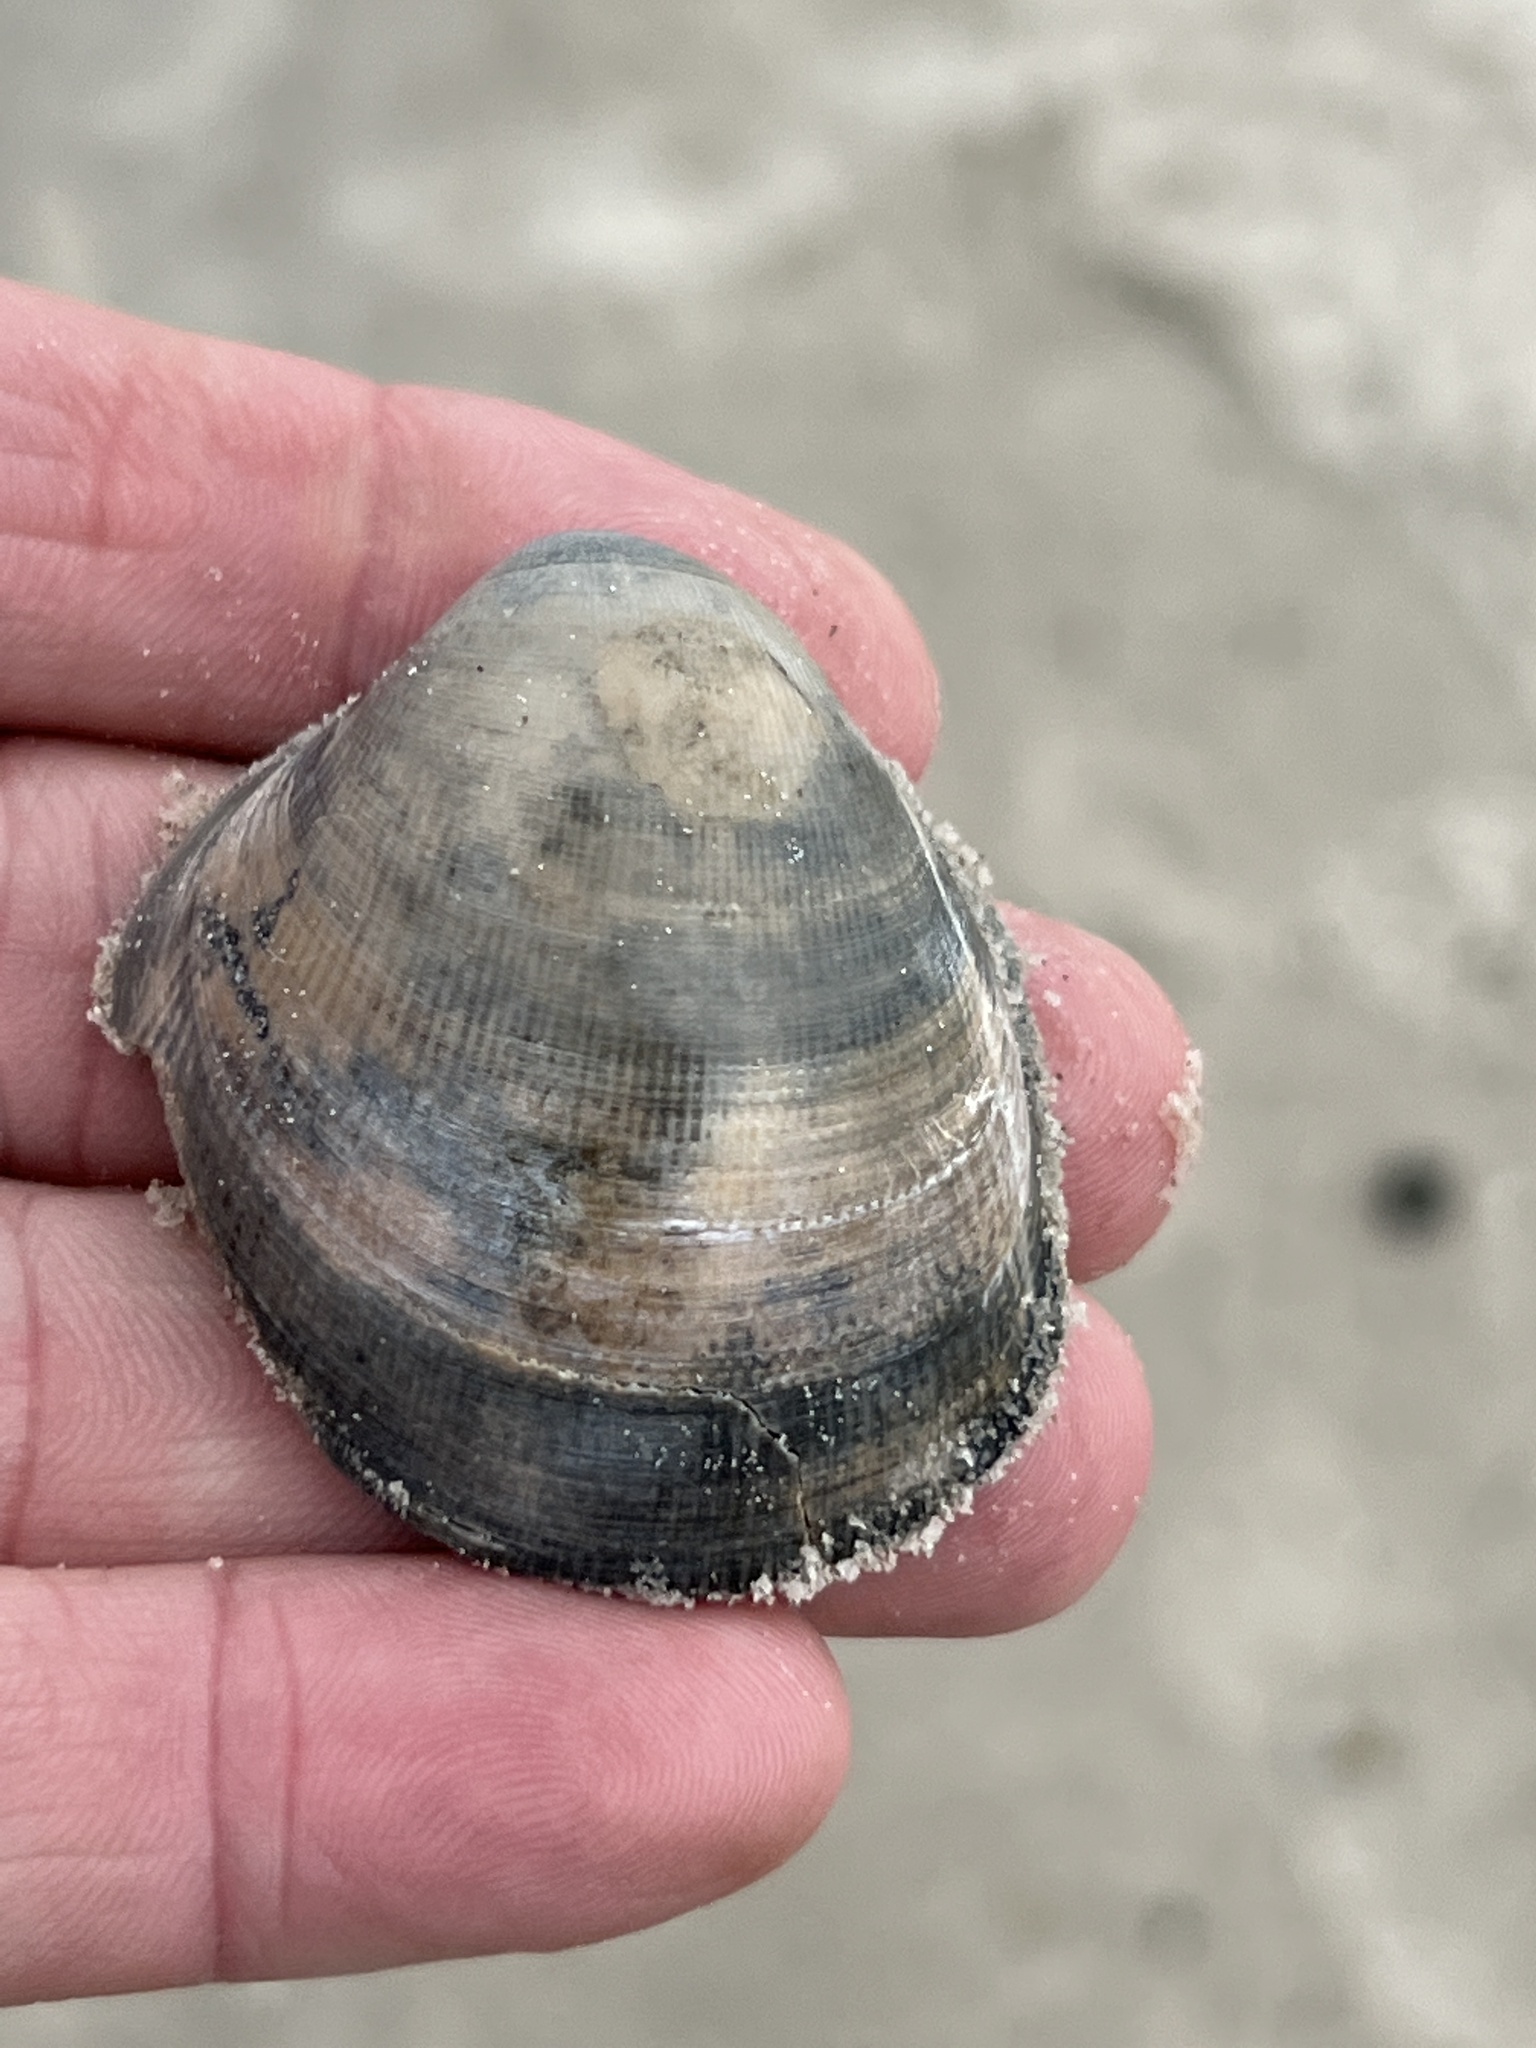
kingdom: Animalia
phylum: Mollusca
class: Bivalvia
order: Cardiida
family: Cardiidae
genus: Laevicardium
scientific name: Laevicardium serratum
